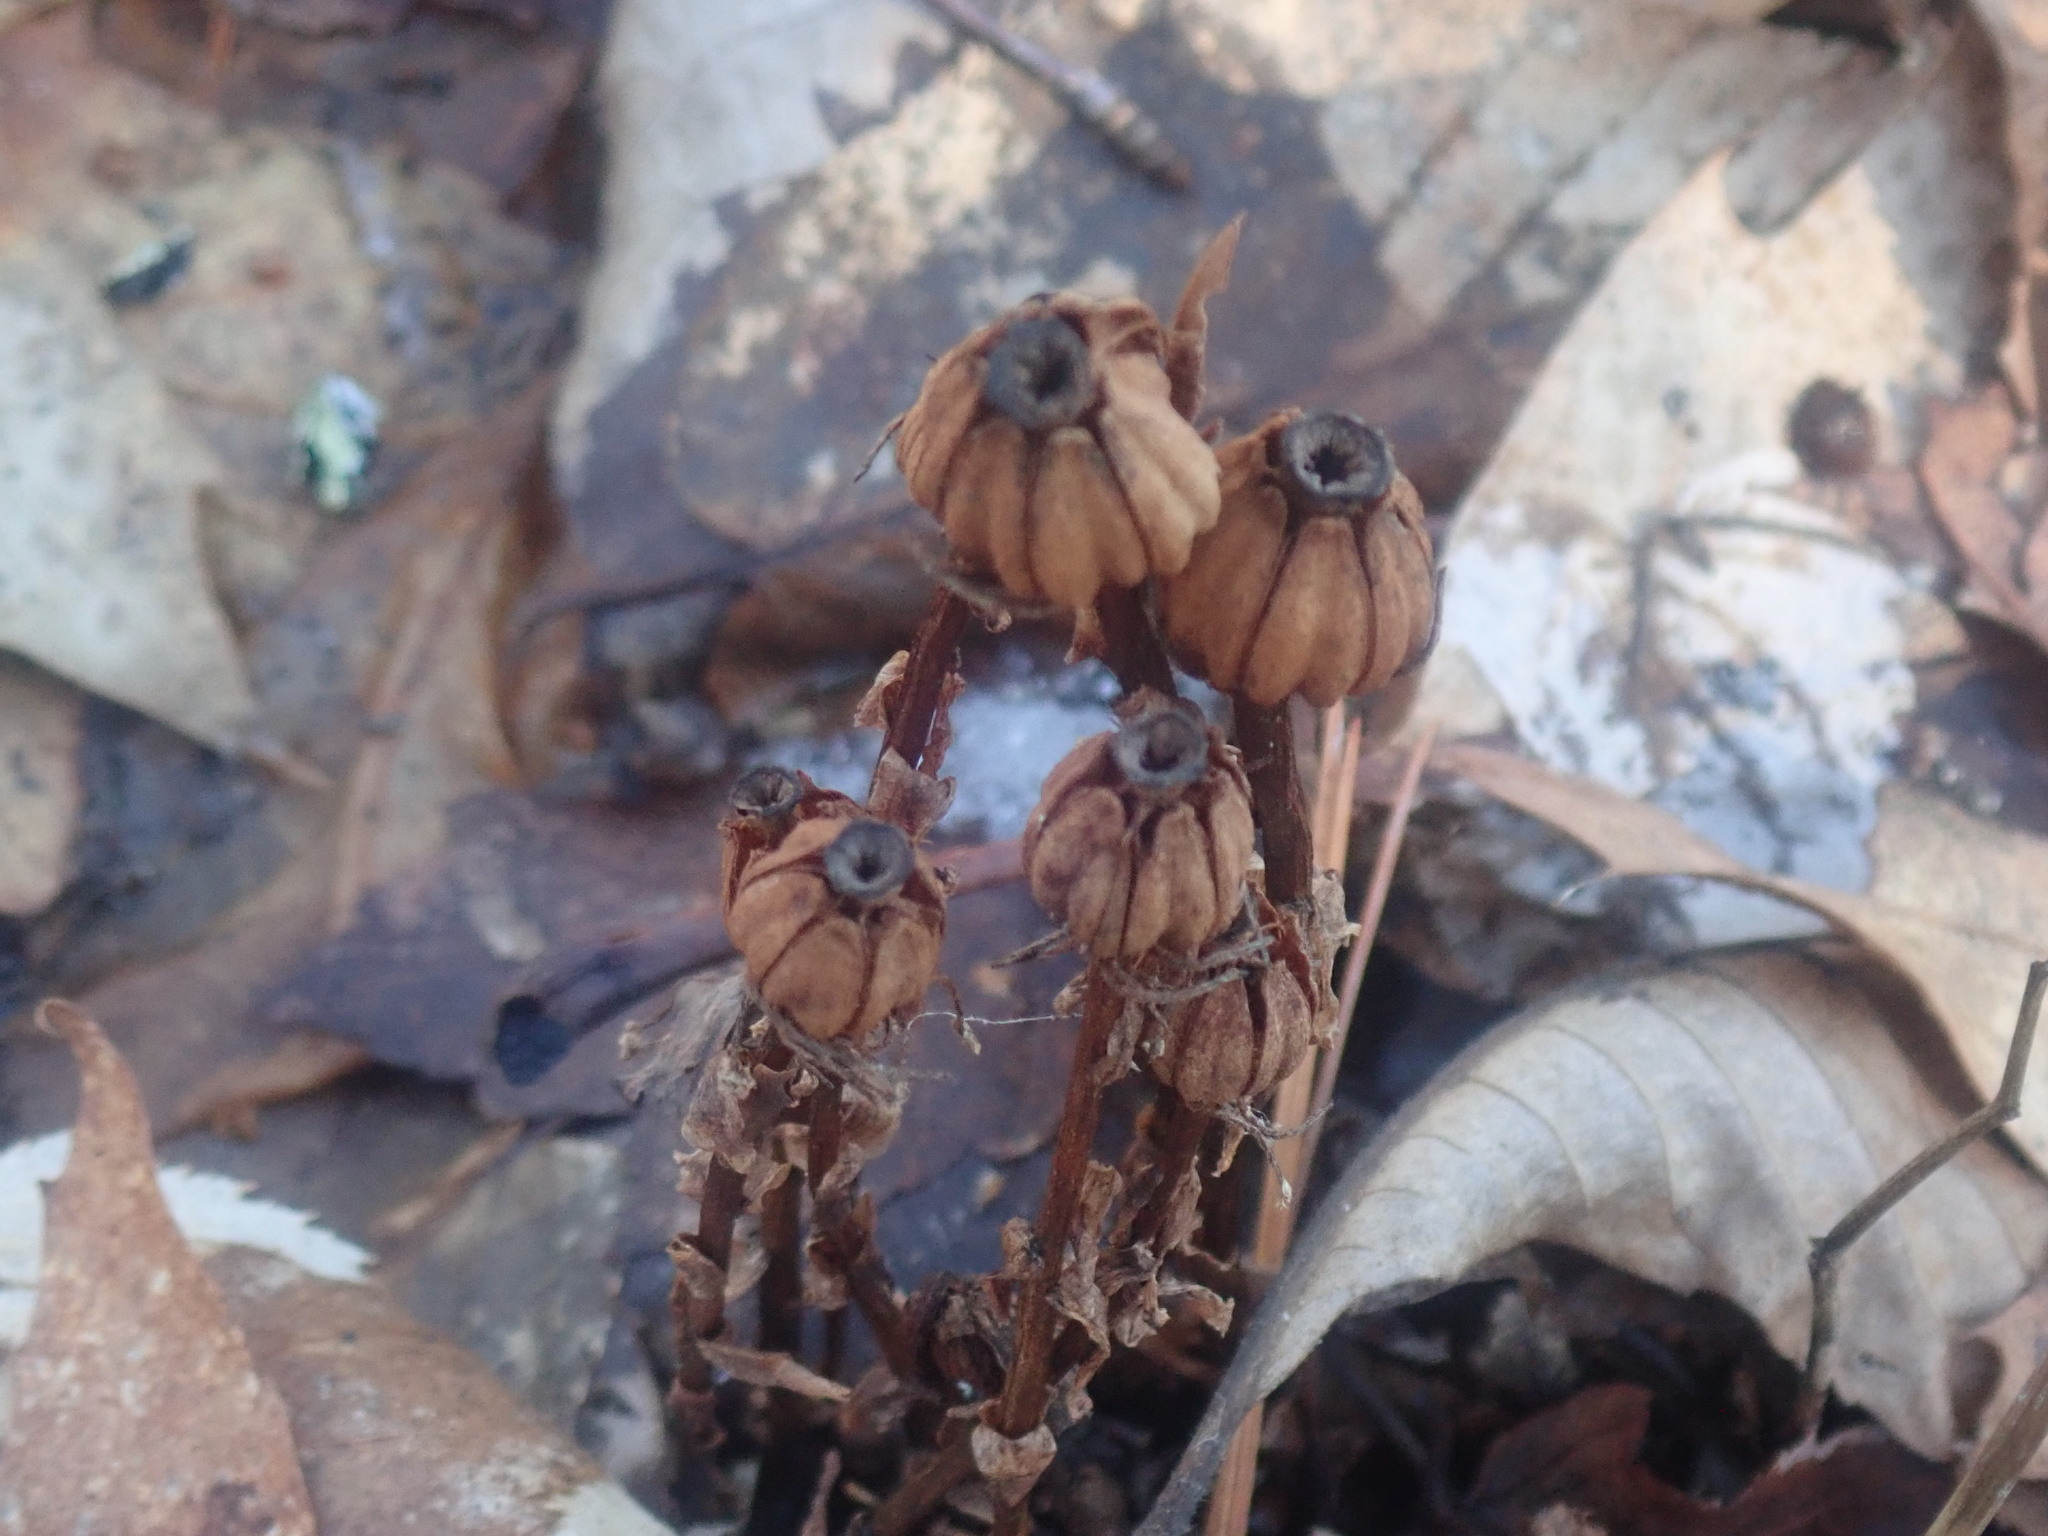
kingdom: Plantae
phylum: Tracheophyta
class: Magnoliopsida
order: Ericales
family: Ericaceae
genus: Monotropa
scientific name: Monotropa uniflora
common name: Convulsion root
